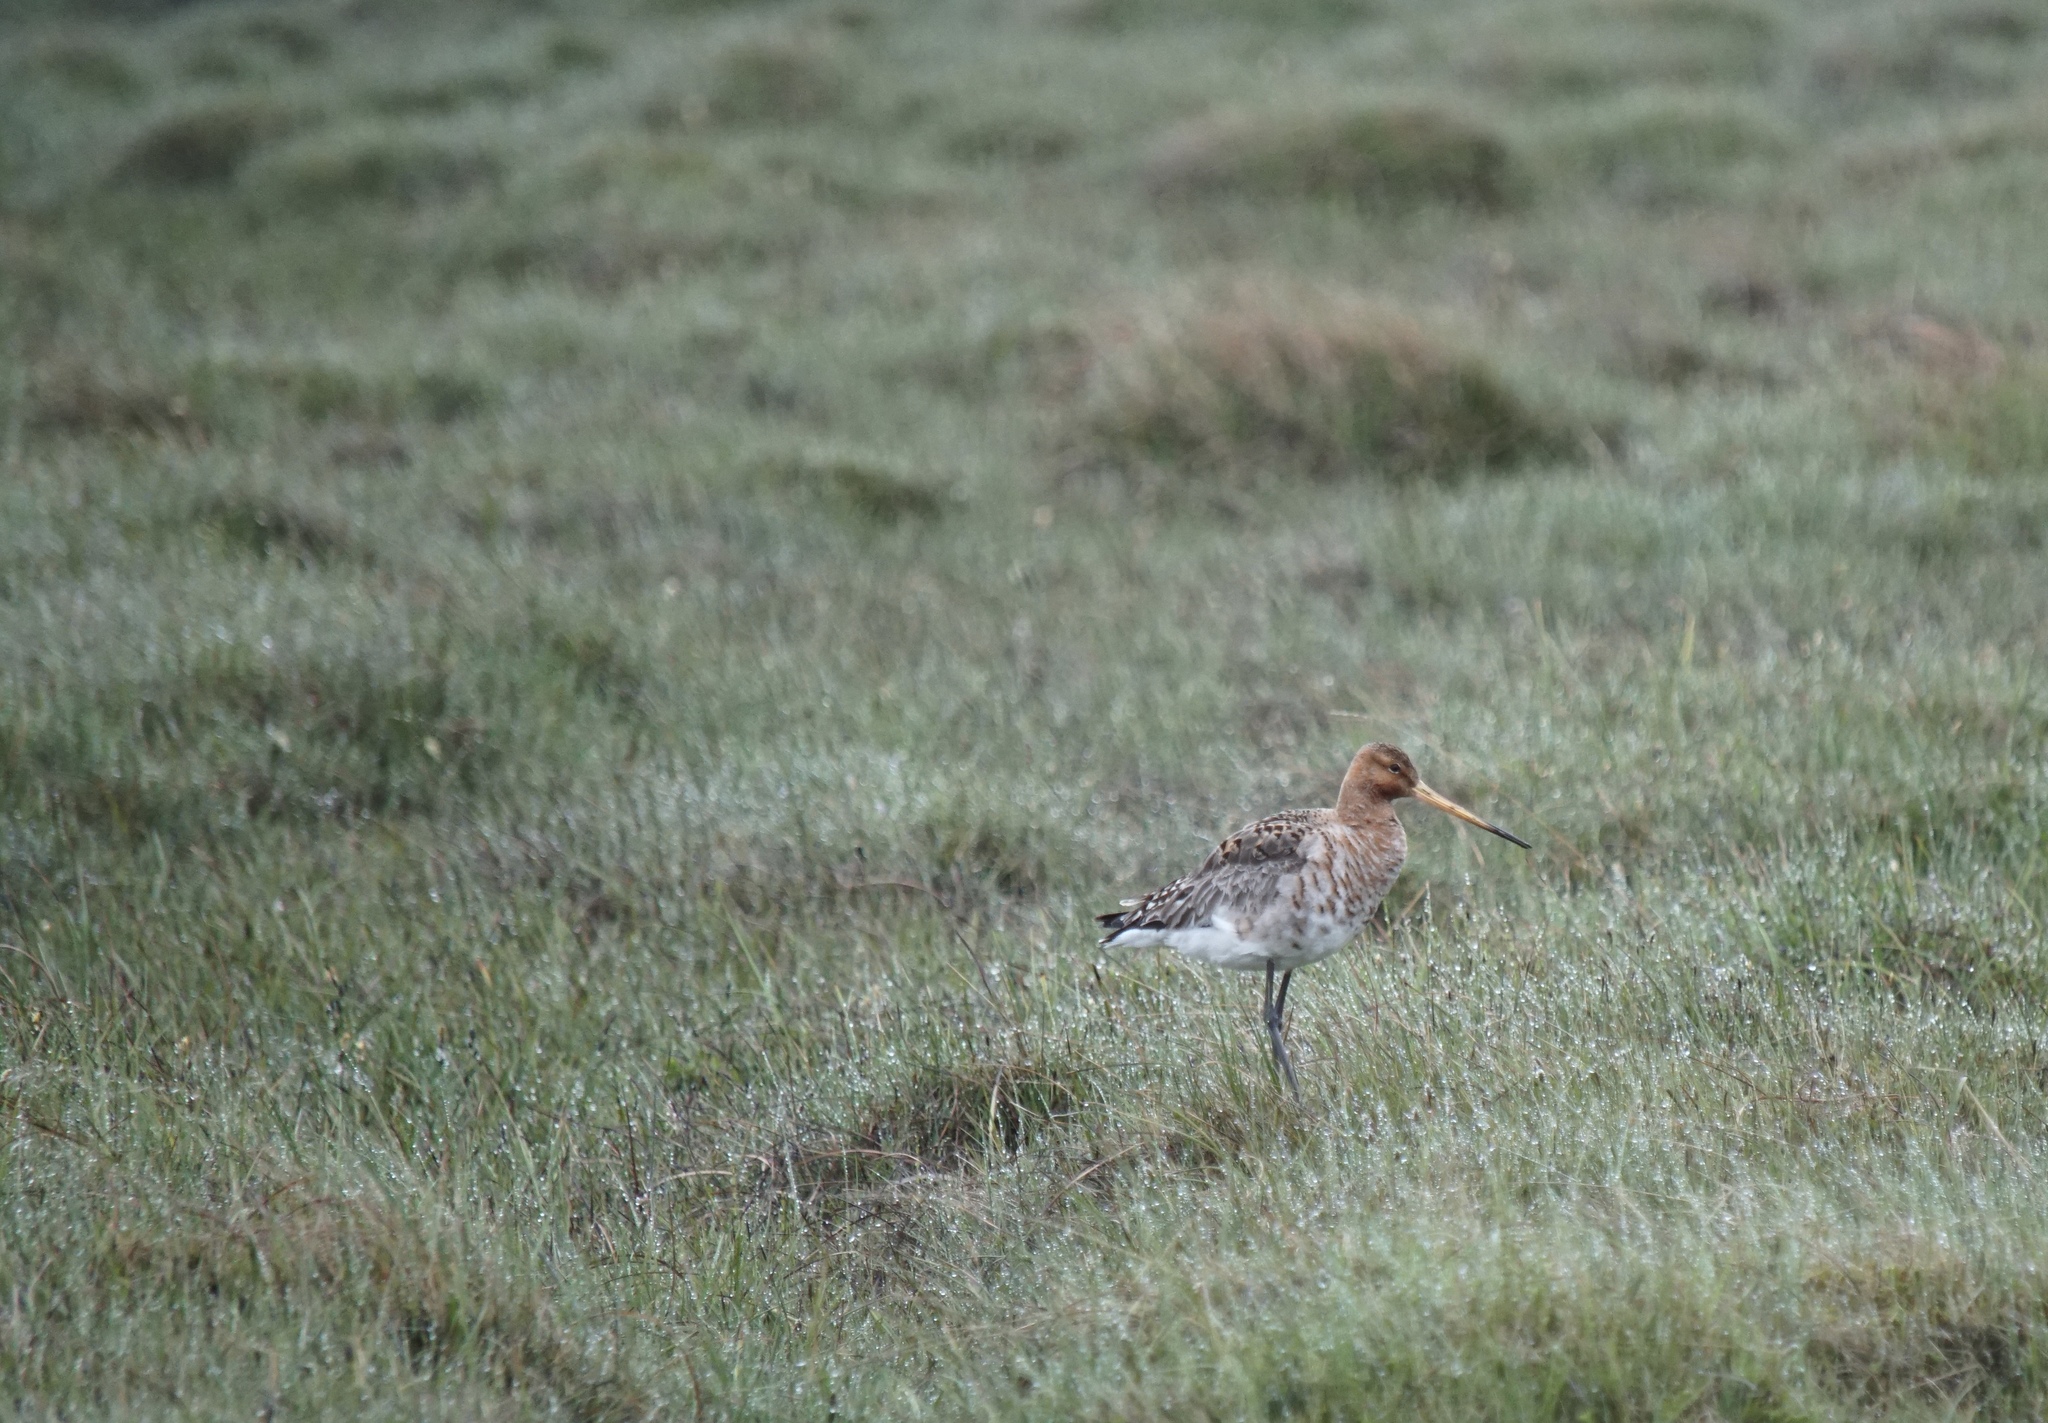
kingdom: Animalia
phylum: Chordata
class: Aves
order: Charadriiformes
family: Scolopacidae
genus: Limosa
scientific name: Limosa limosa
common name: Black-tailed godwit
